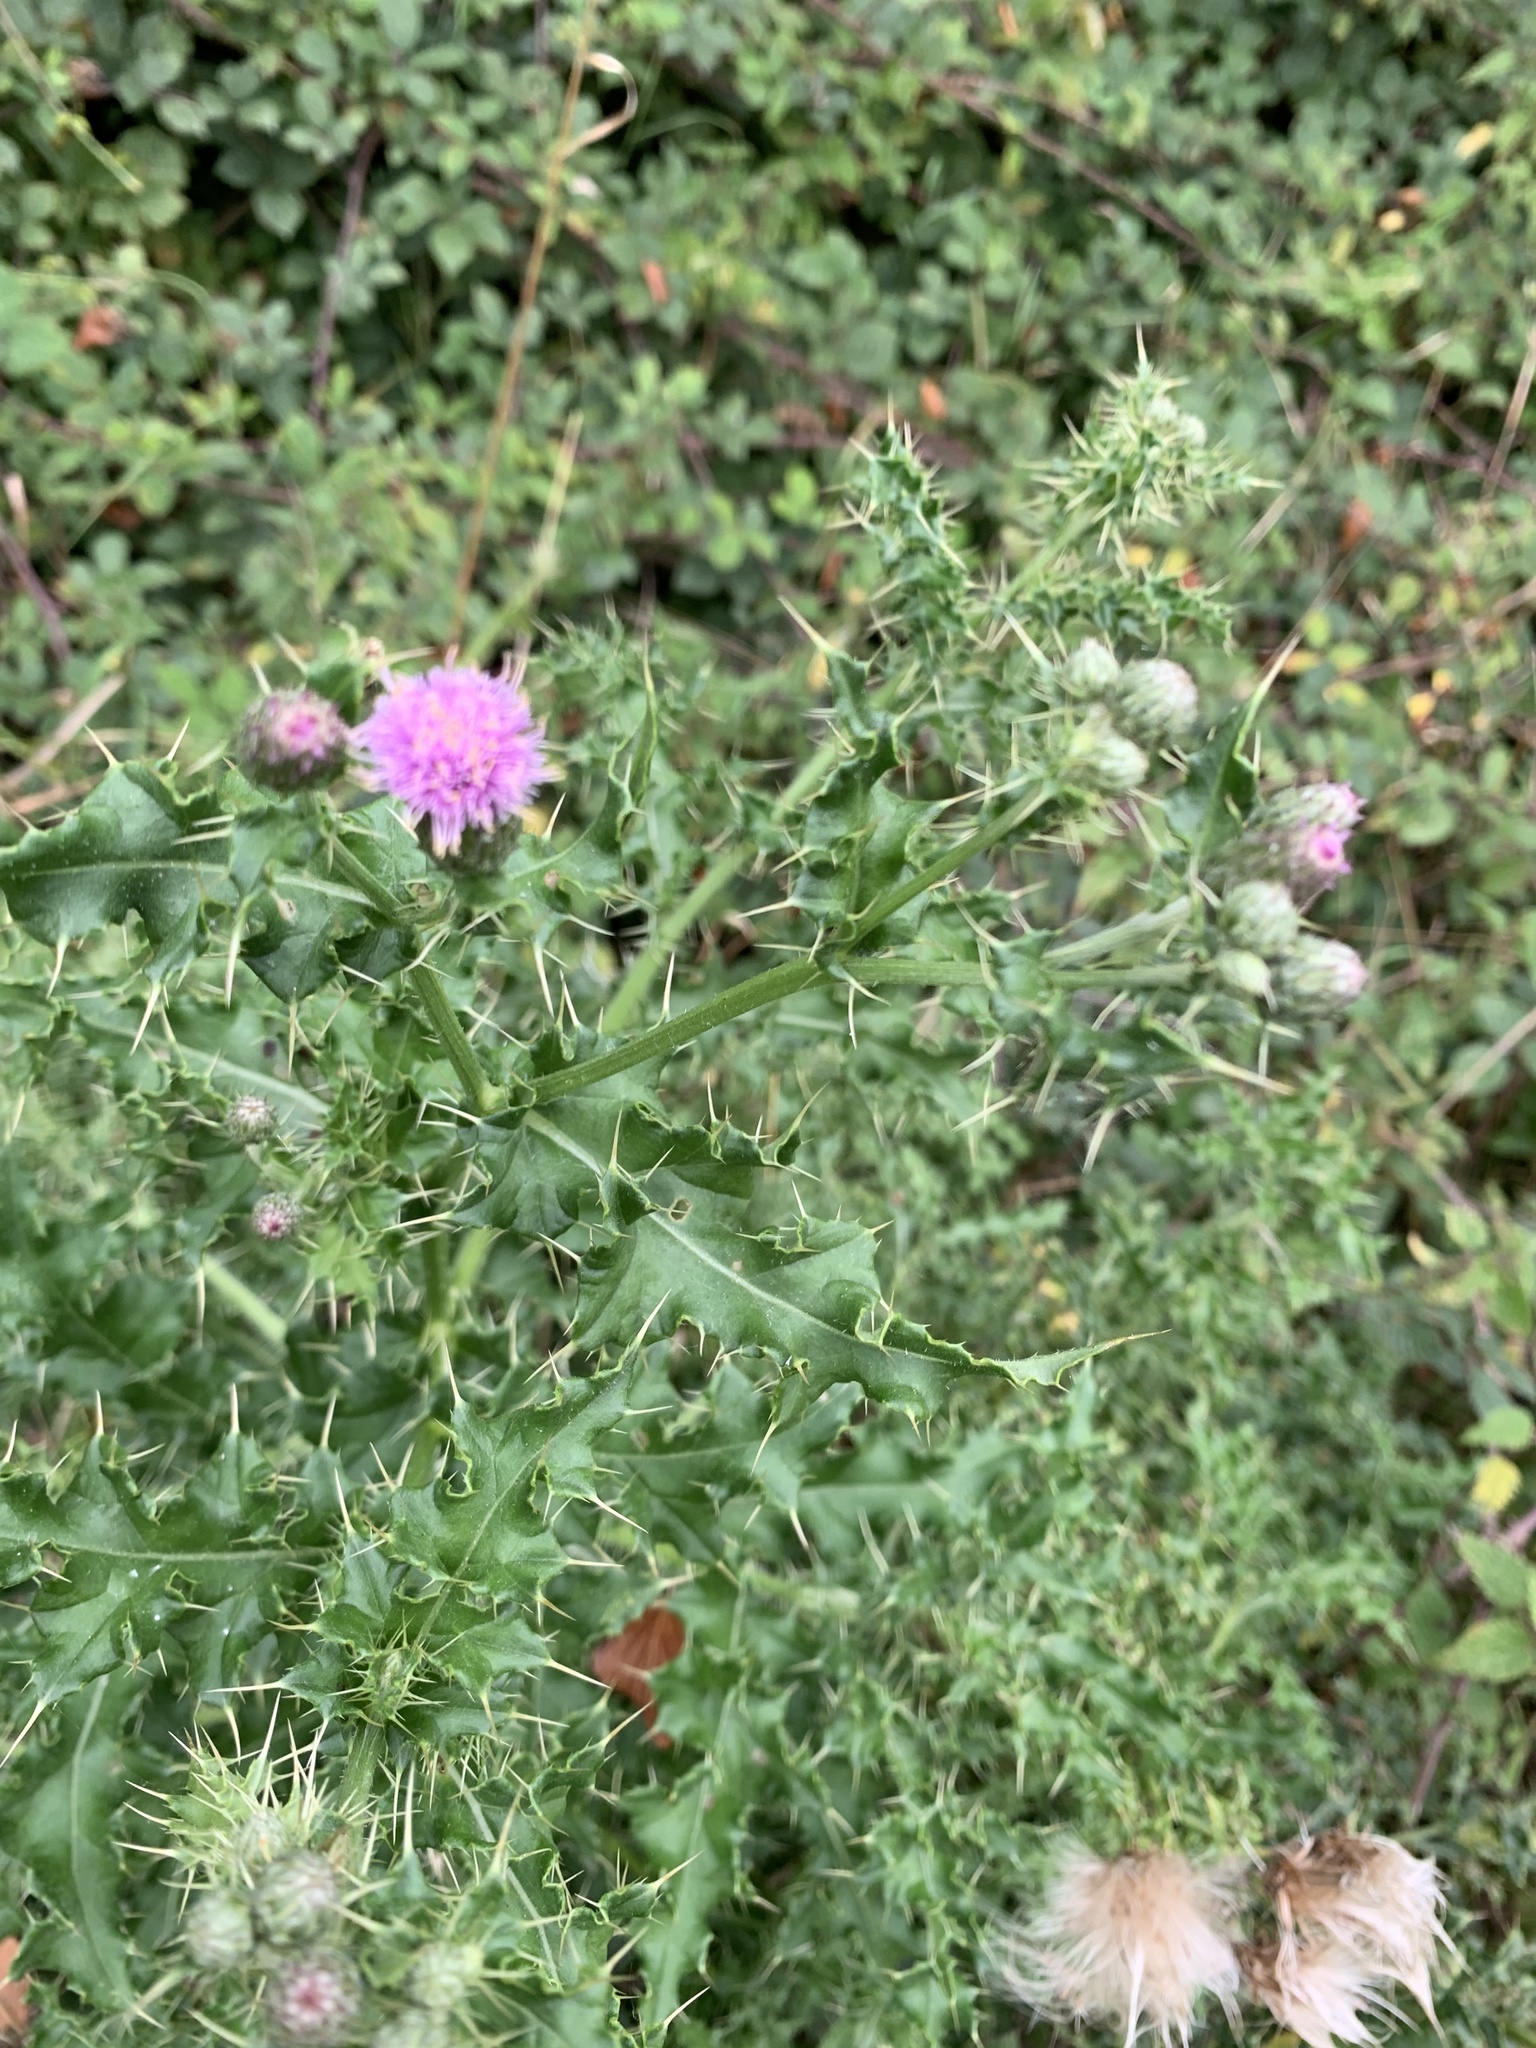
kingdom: Plantae
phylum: Tracheophyta
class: Magnoliopsida
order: Asterales
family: Asteraceae
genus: Cirsium
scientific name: Cirsium arvense
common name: Creeping thistle
